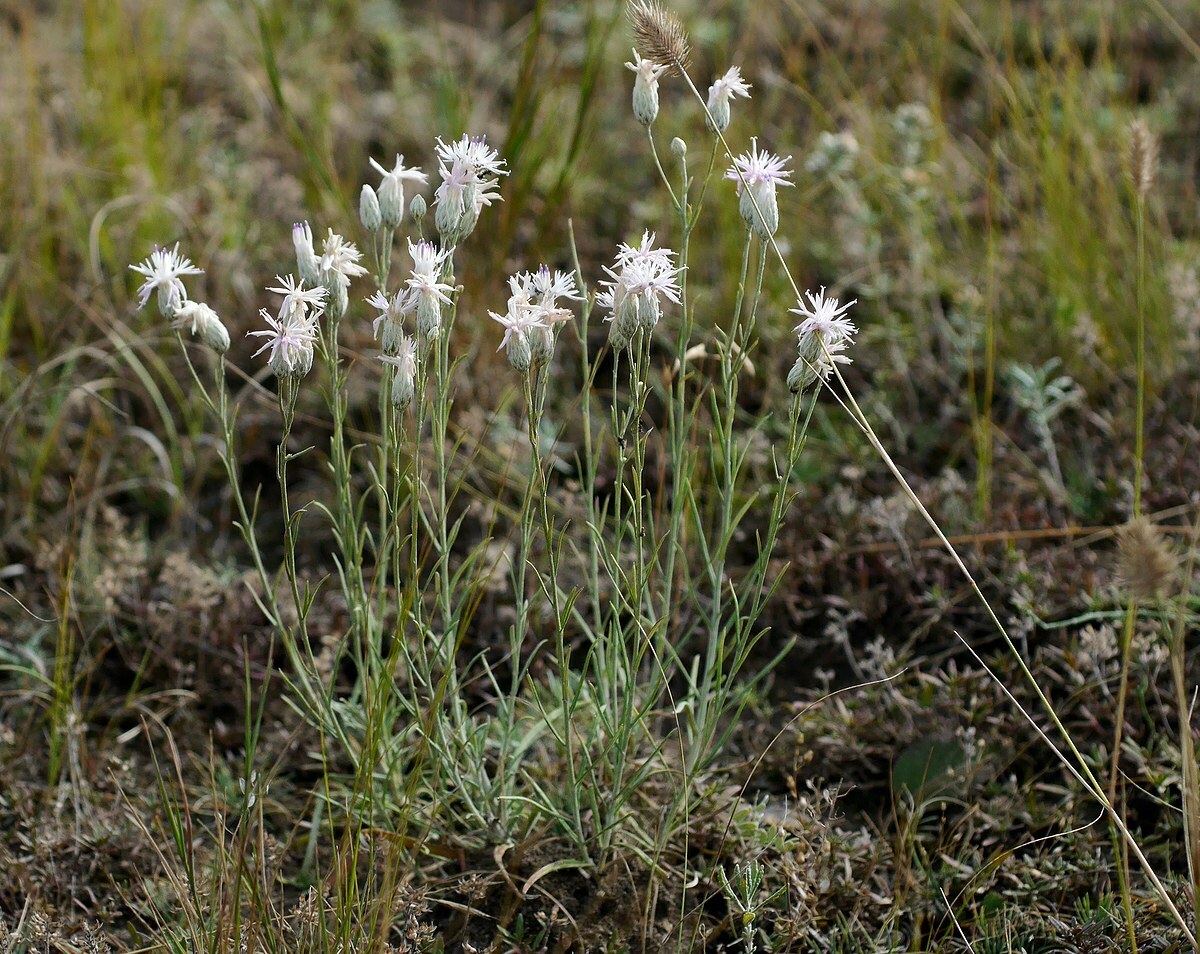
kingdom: Plantae
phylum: Tracheophyta
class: Magnoliopsida
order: Asterales
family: Asteraceae
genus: Jurinea
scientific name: Jurinea stoechadifolia
